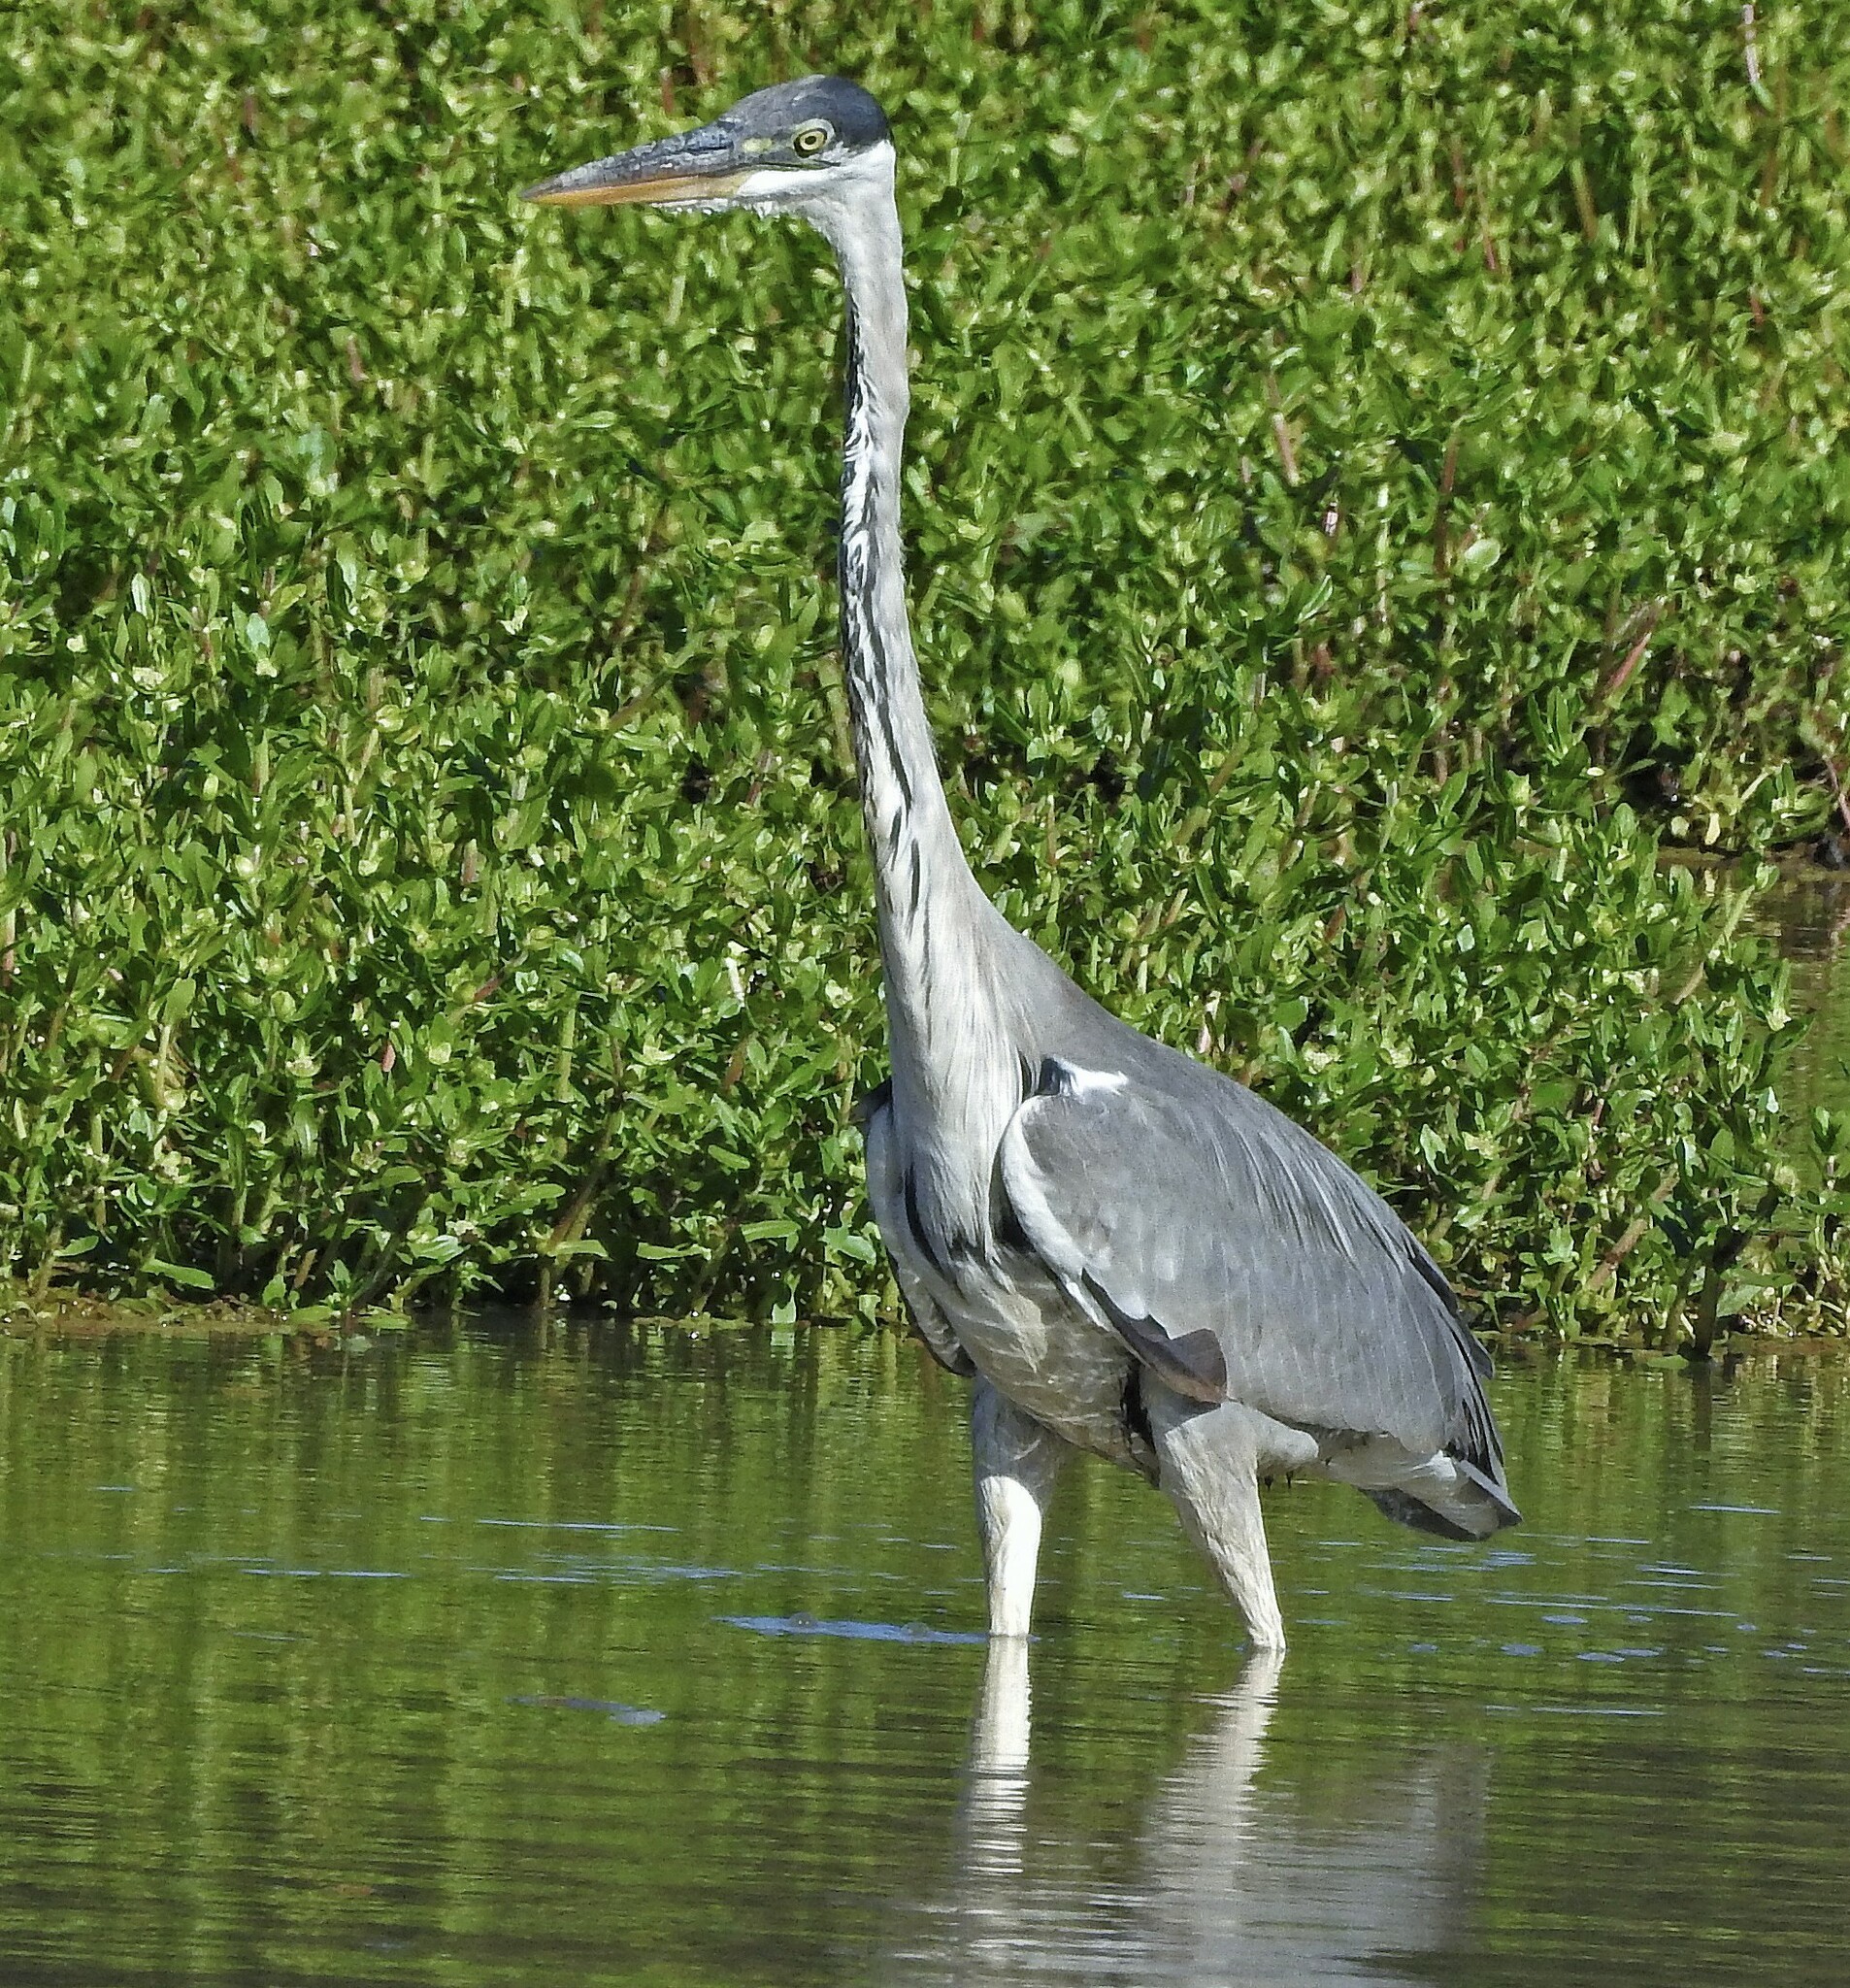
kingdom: Animalia
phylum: Chordata
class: Aves
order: Pelecaniformes
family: Ardeidae
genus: Ardea
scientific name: Ardea cocoi
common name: Cocoi heron
